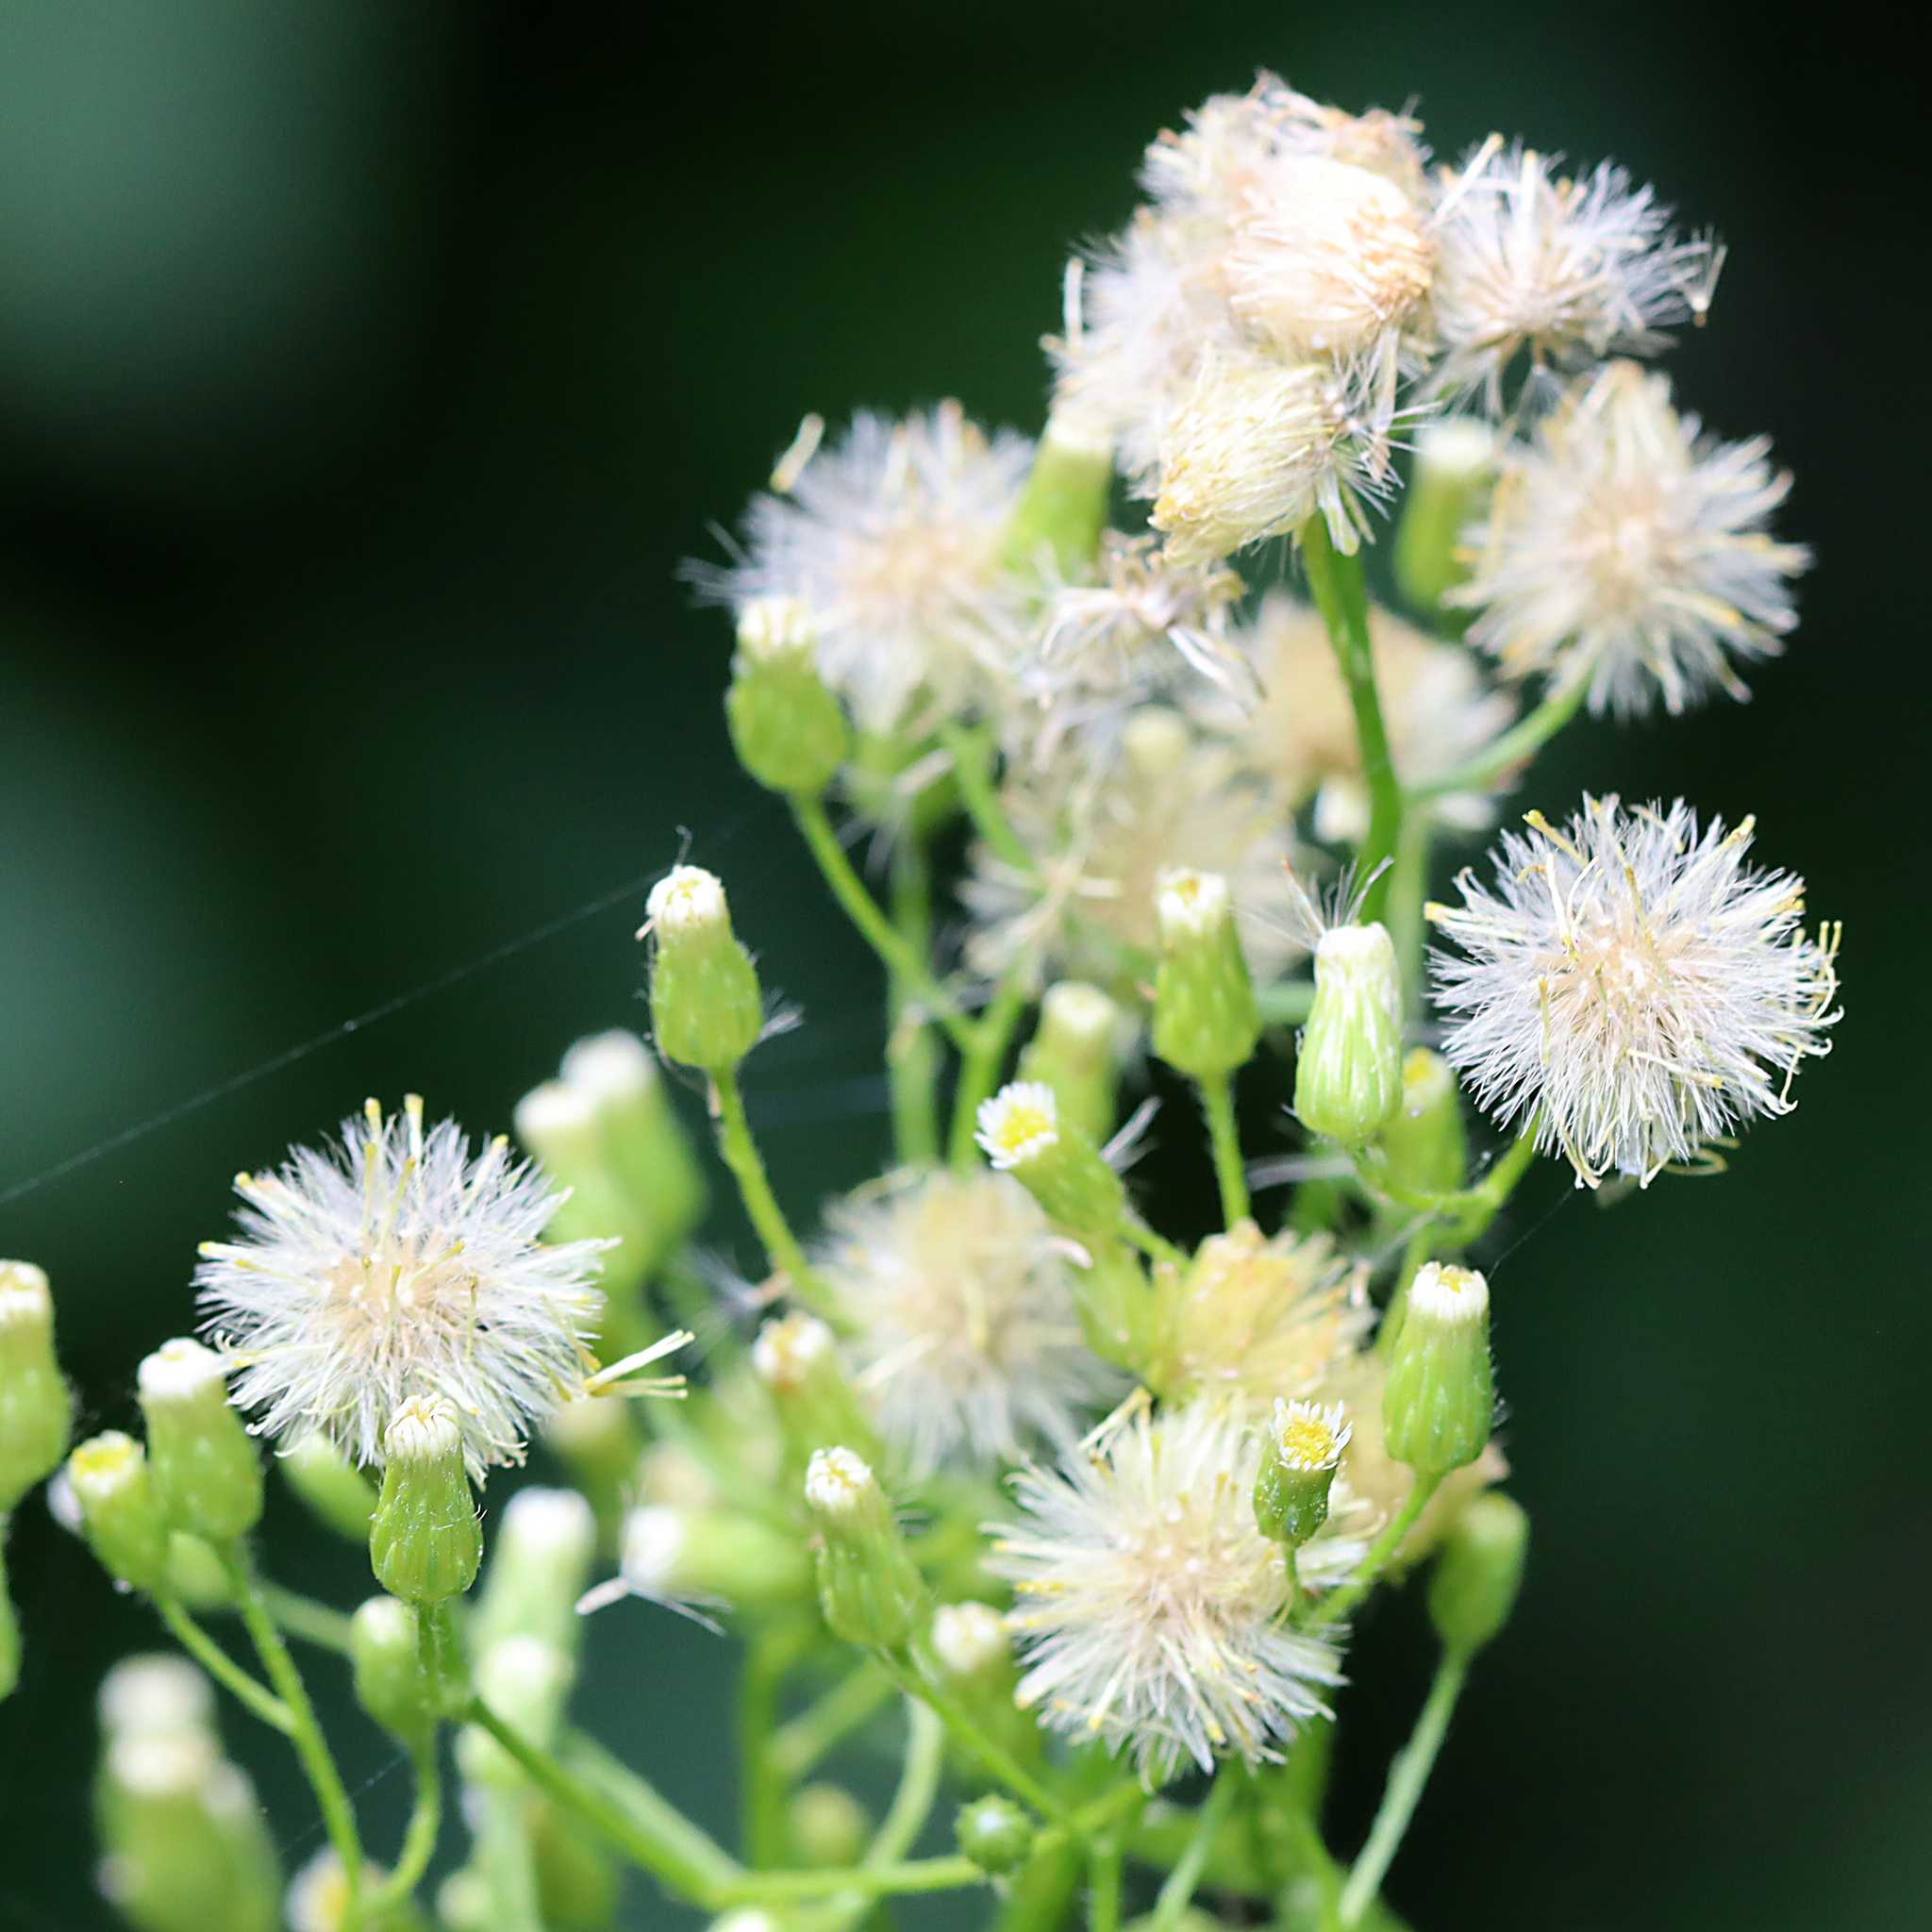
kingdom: Plantae
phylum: Tracheophyta
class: Magnoliopsida
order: Asterales
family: Asteraceae
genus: Erigeron
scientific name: Erigeron canadensis
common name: Canadian fleabane
